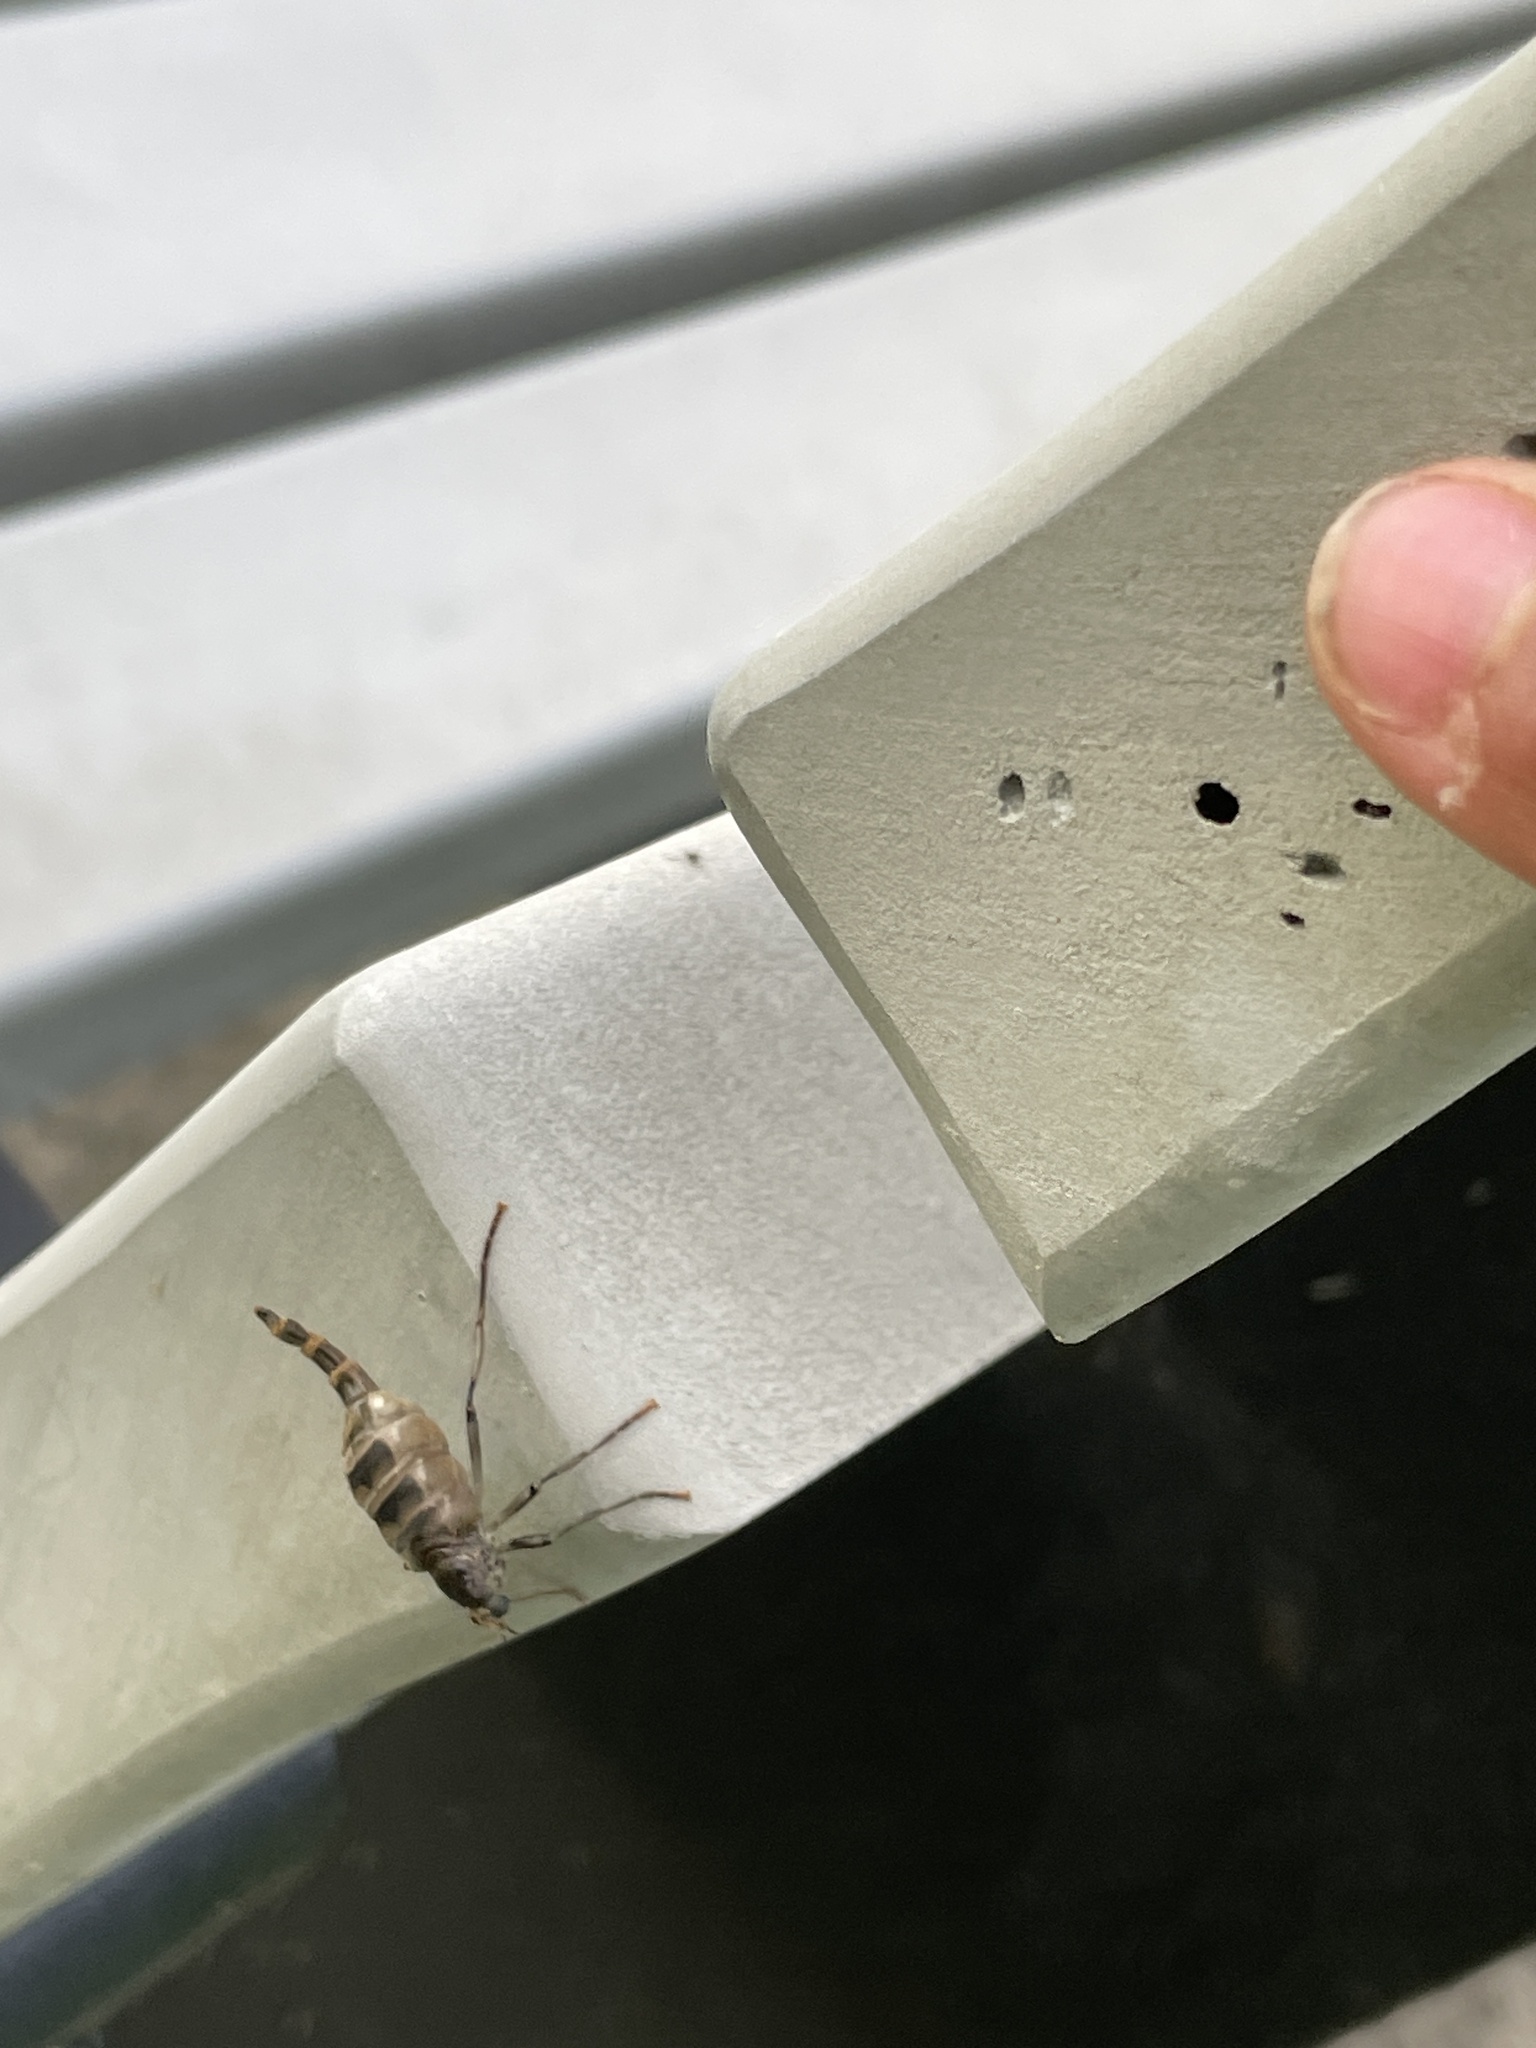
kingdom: Animalia
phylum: Arthropoda
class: Insecta
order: Diptera
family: Stratiomyidae
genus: Boreoides
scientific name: Boreoides subulatus
